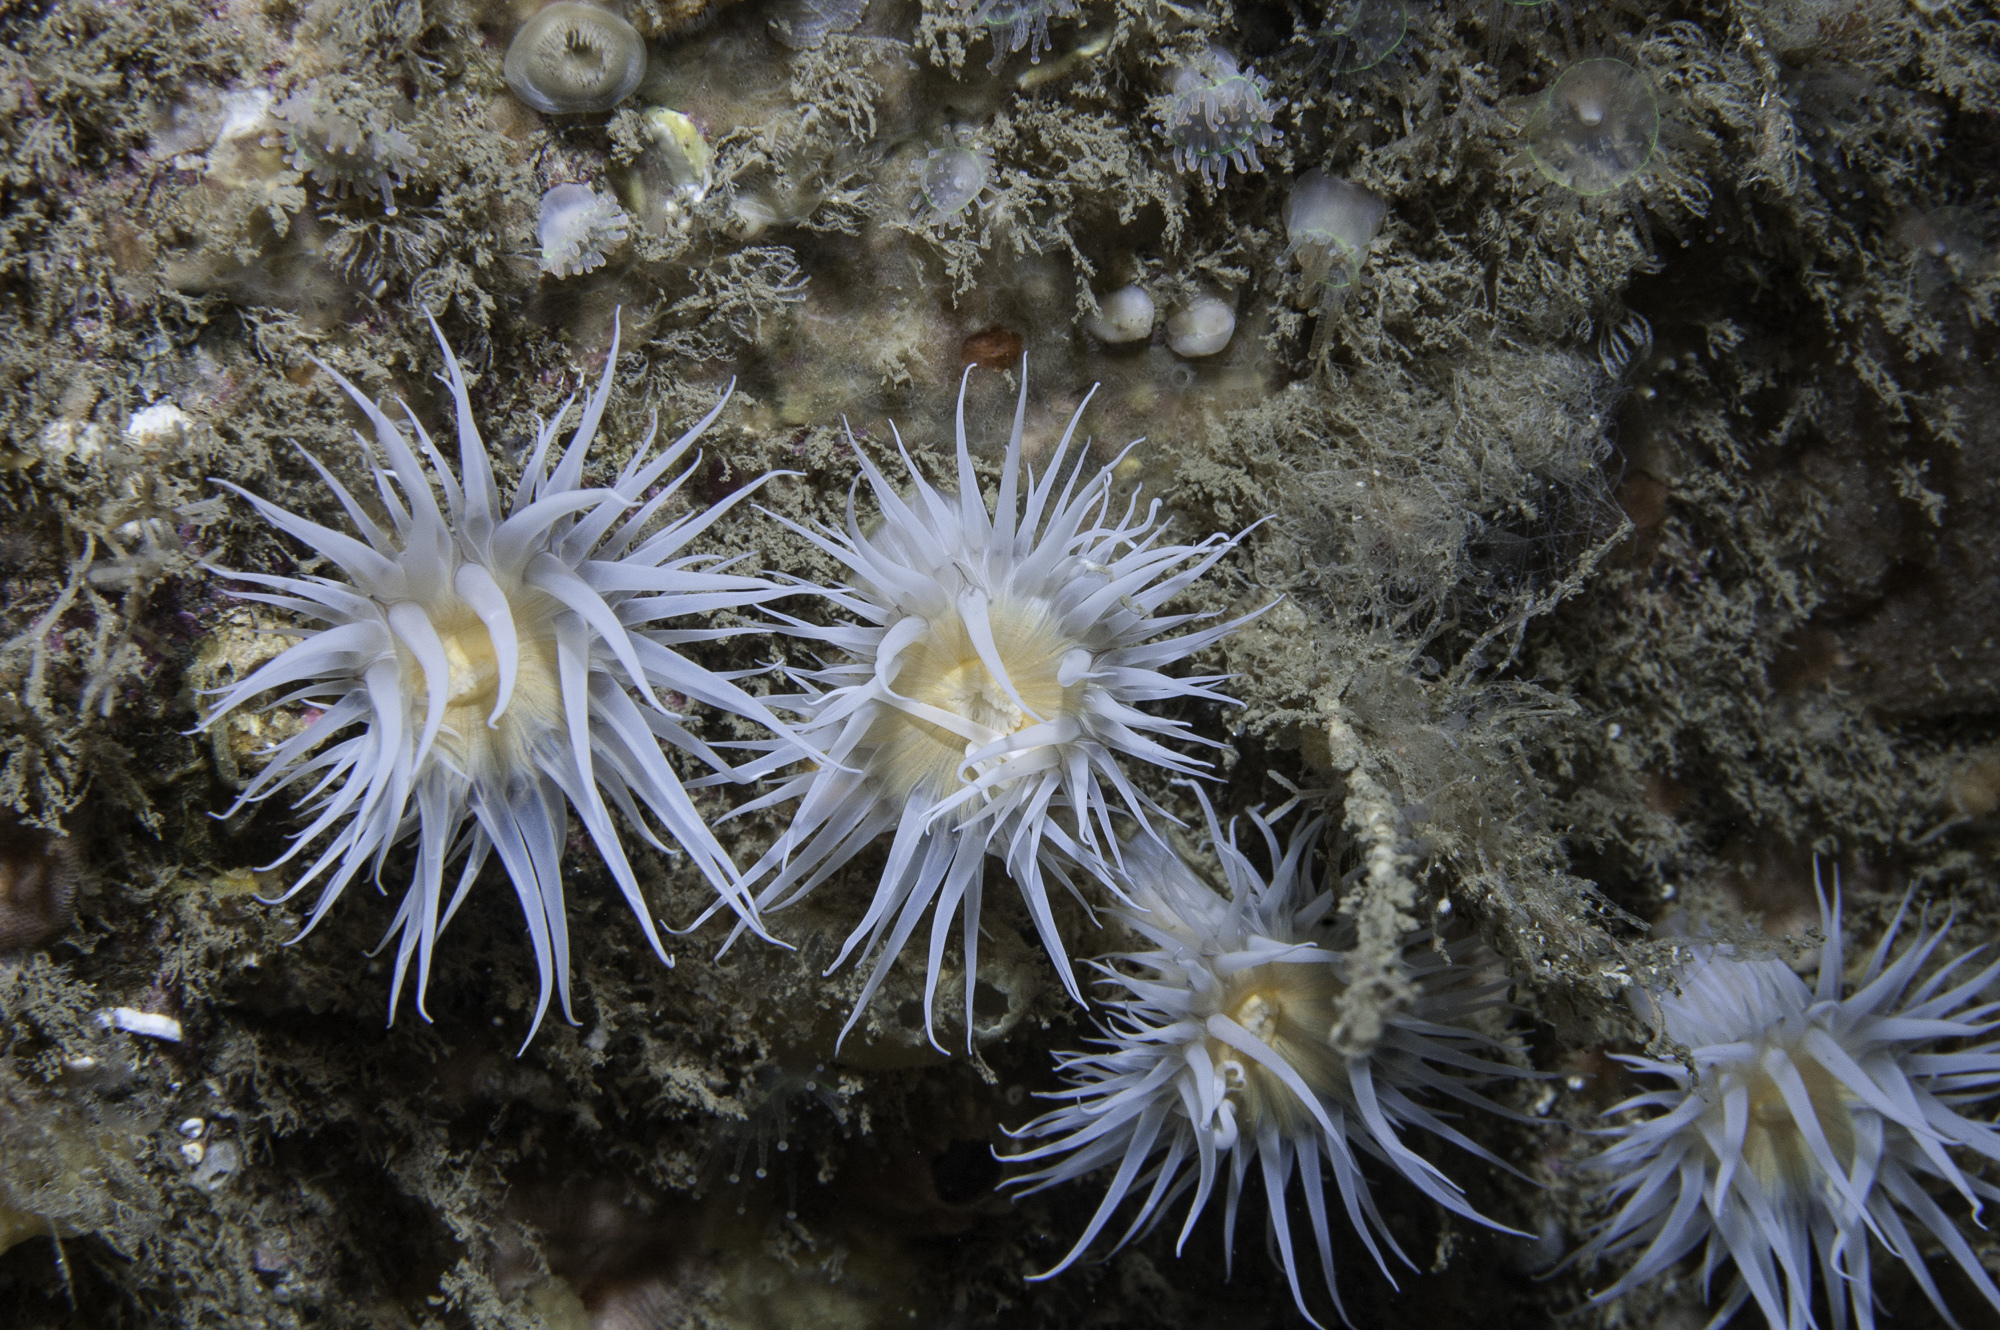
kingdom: Animalia
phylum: Cnidaria
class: Anthozoa
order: Actiniaria
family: Sagartiidae
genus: Actinothoe
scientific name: Actinothoe sphyrodeta
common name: Sandalled anemone
